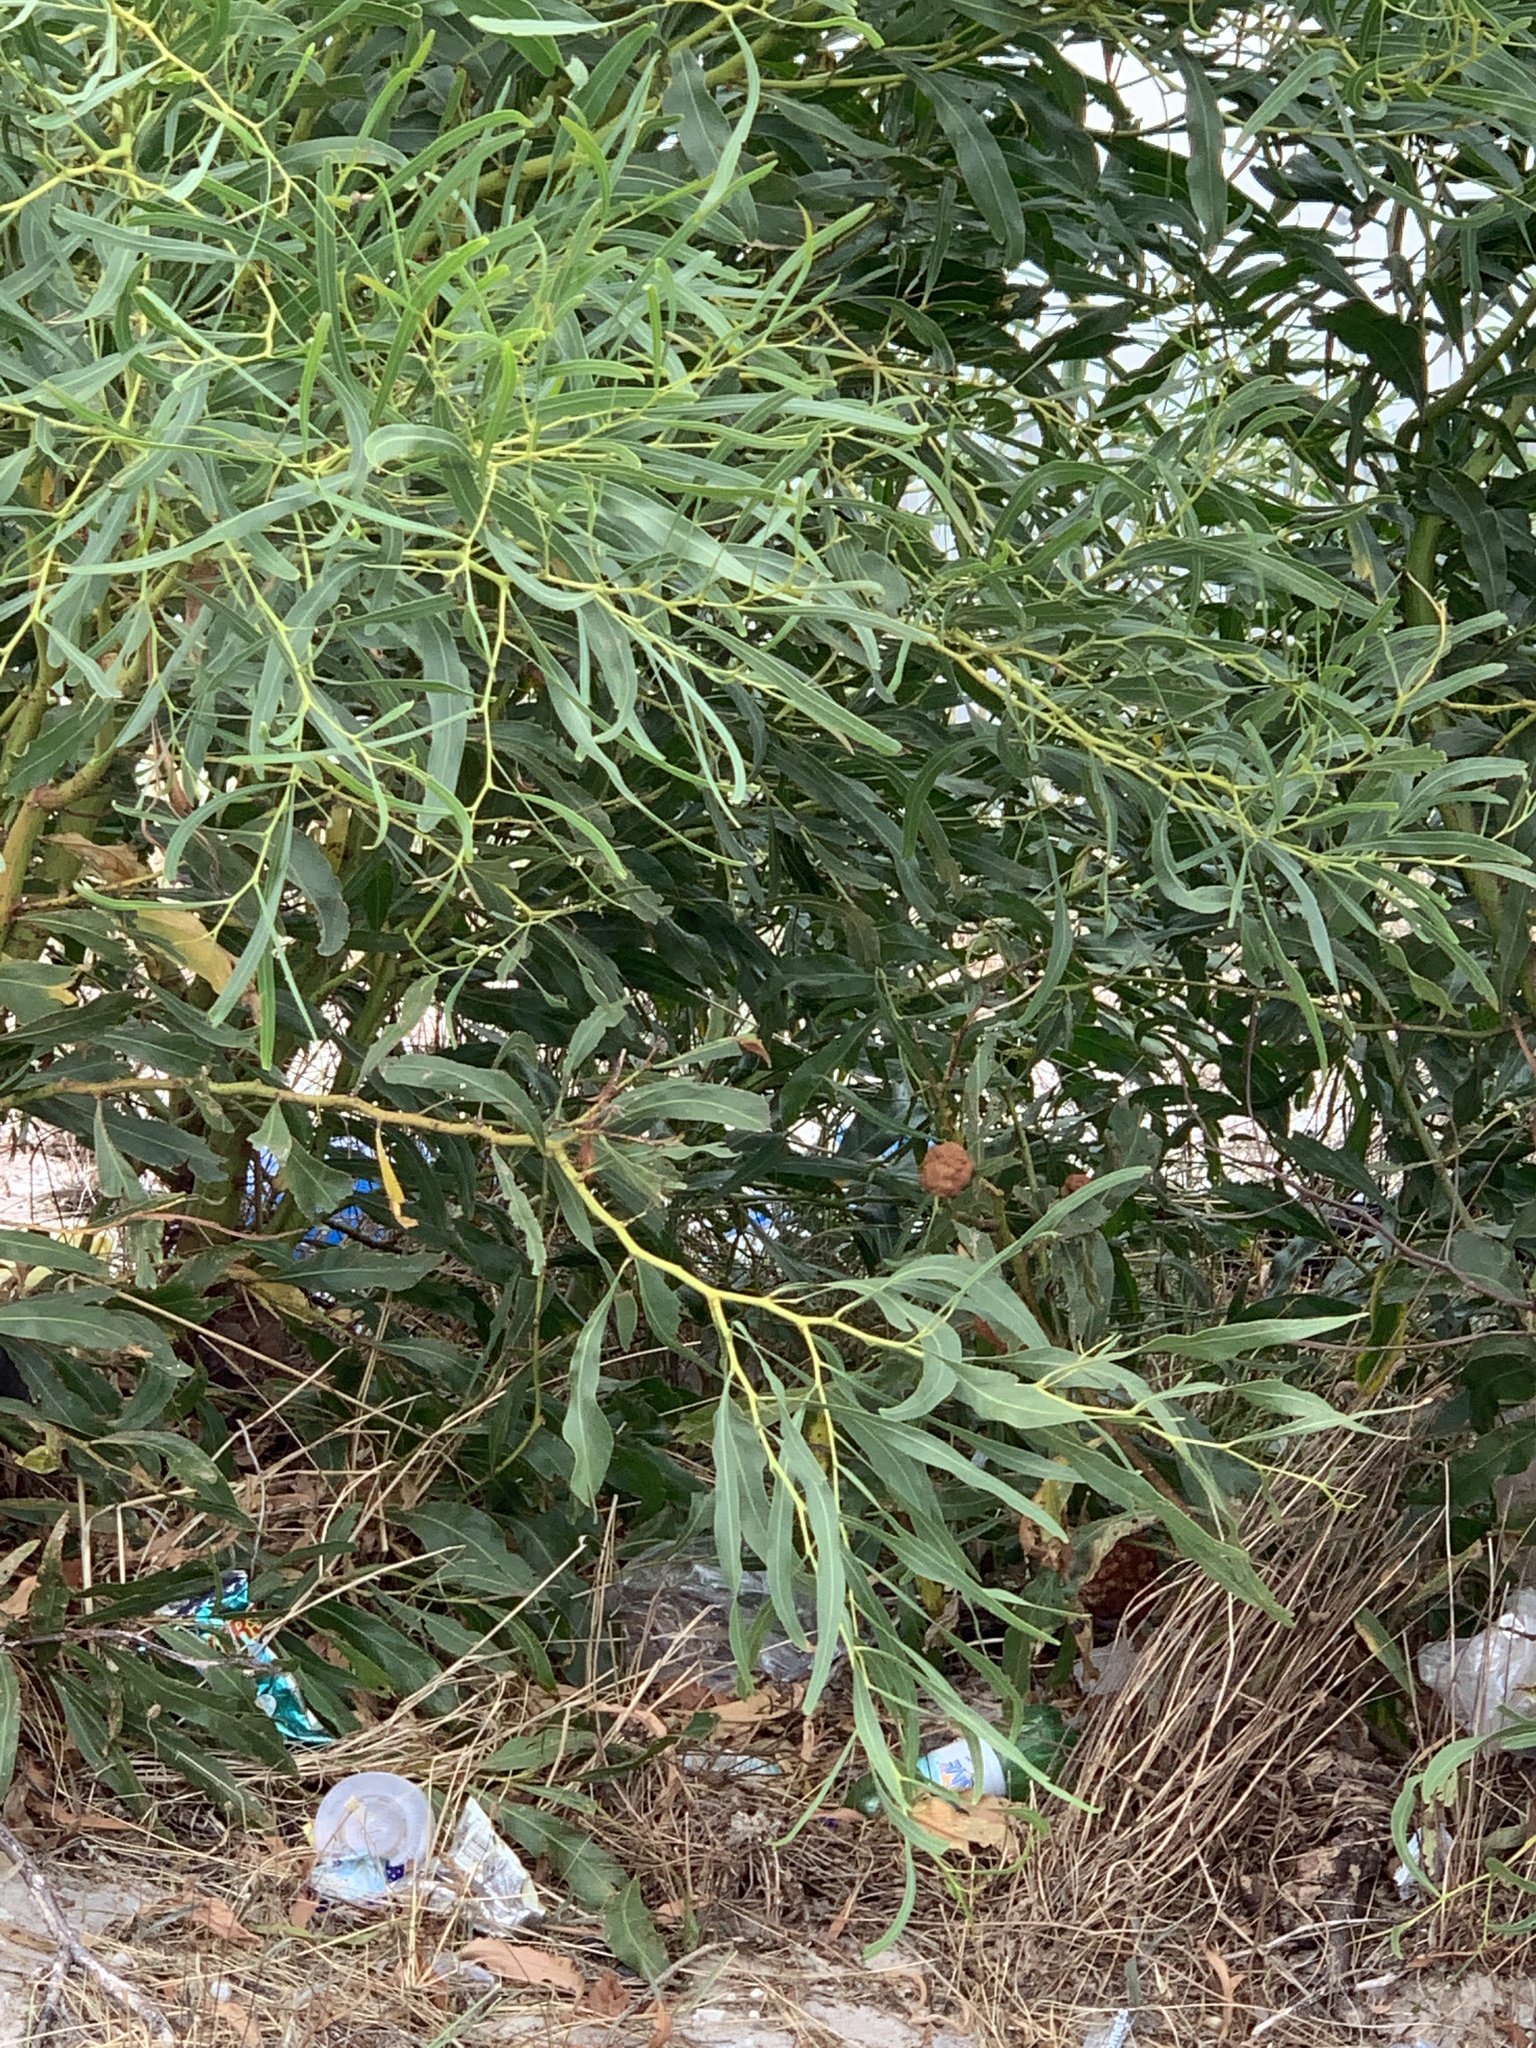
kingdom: Plantae
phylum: Tracheophyta
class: Magnoliopsida
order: Fabales
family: Fabaceae
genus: Acacia
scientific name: Acacia saligna
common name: Orange wattle
